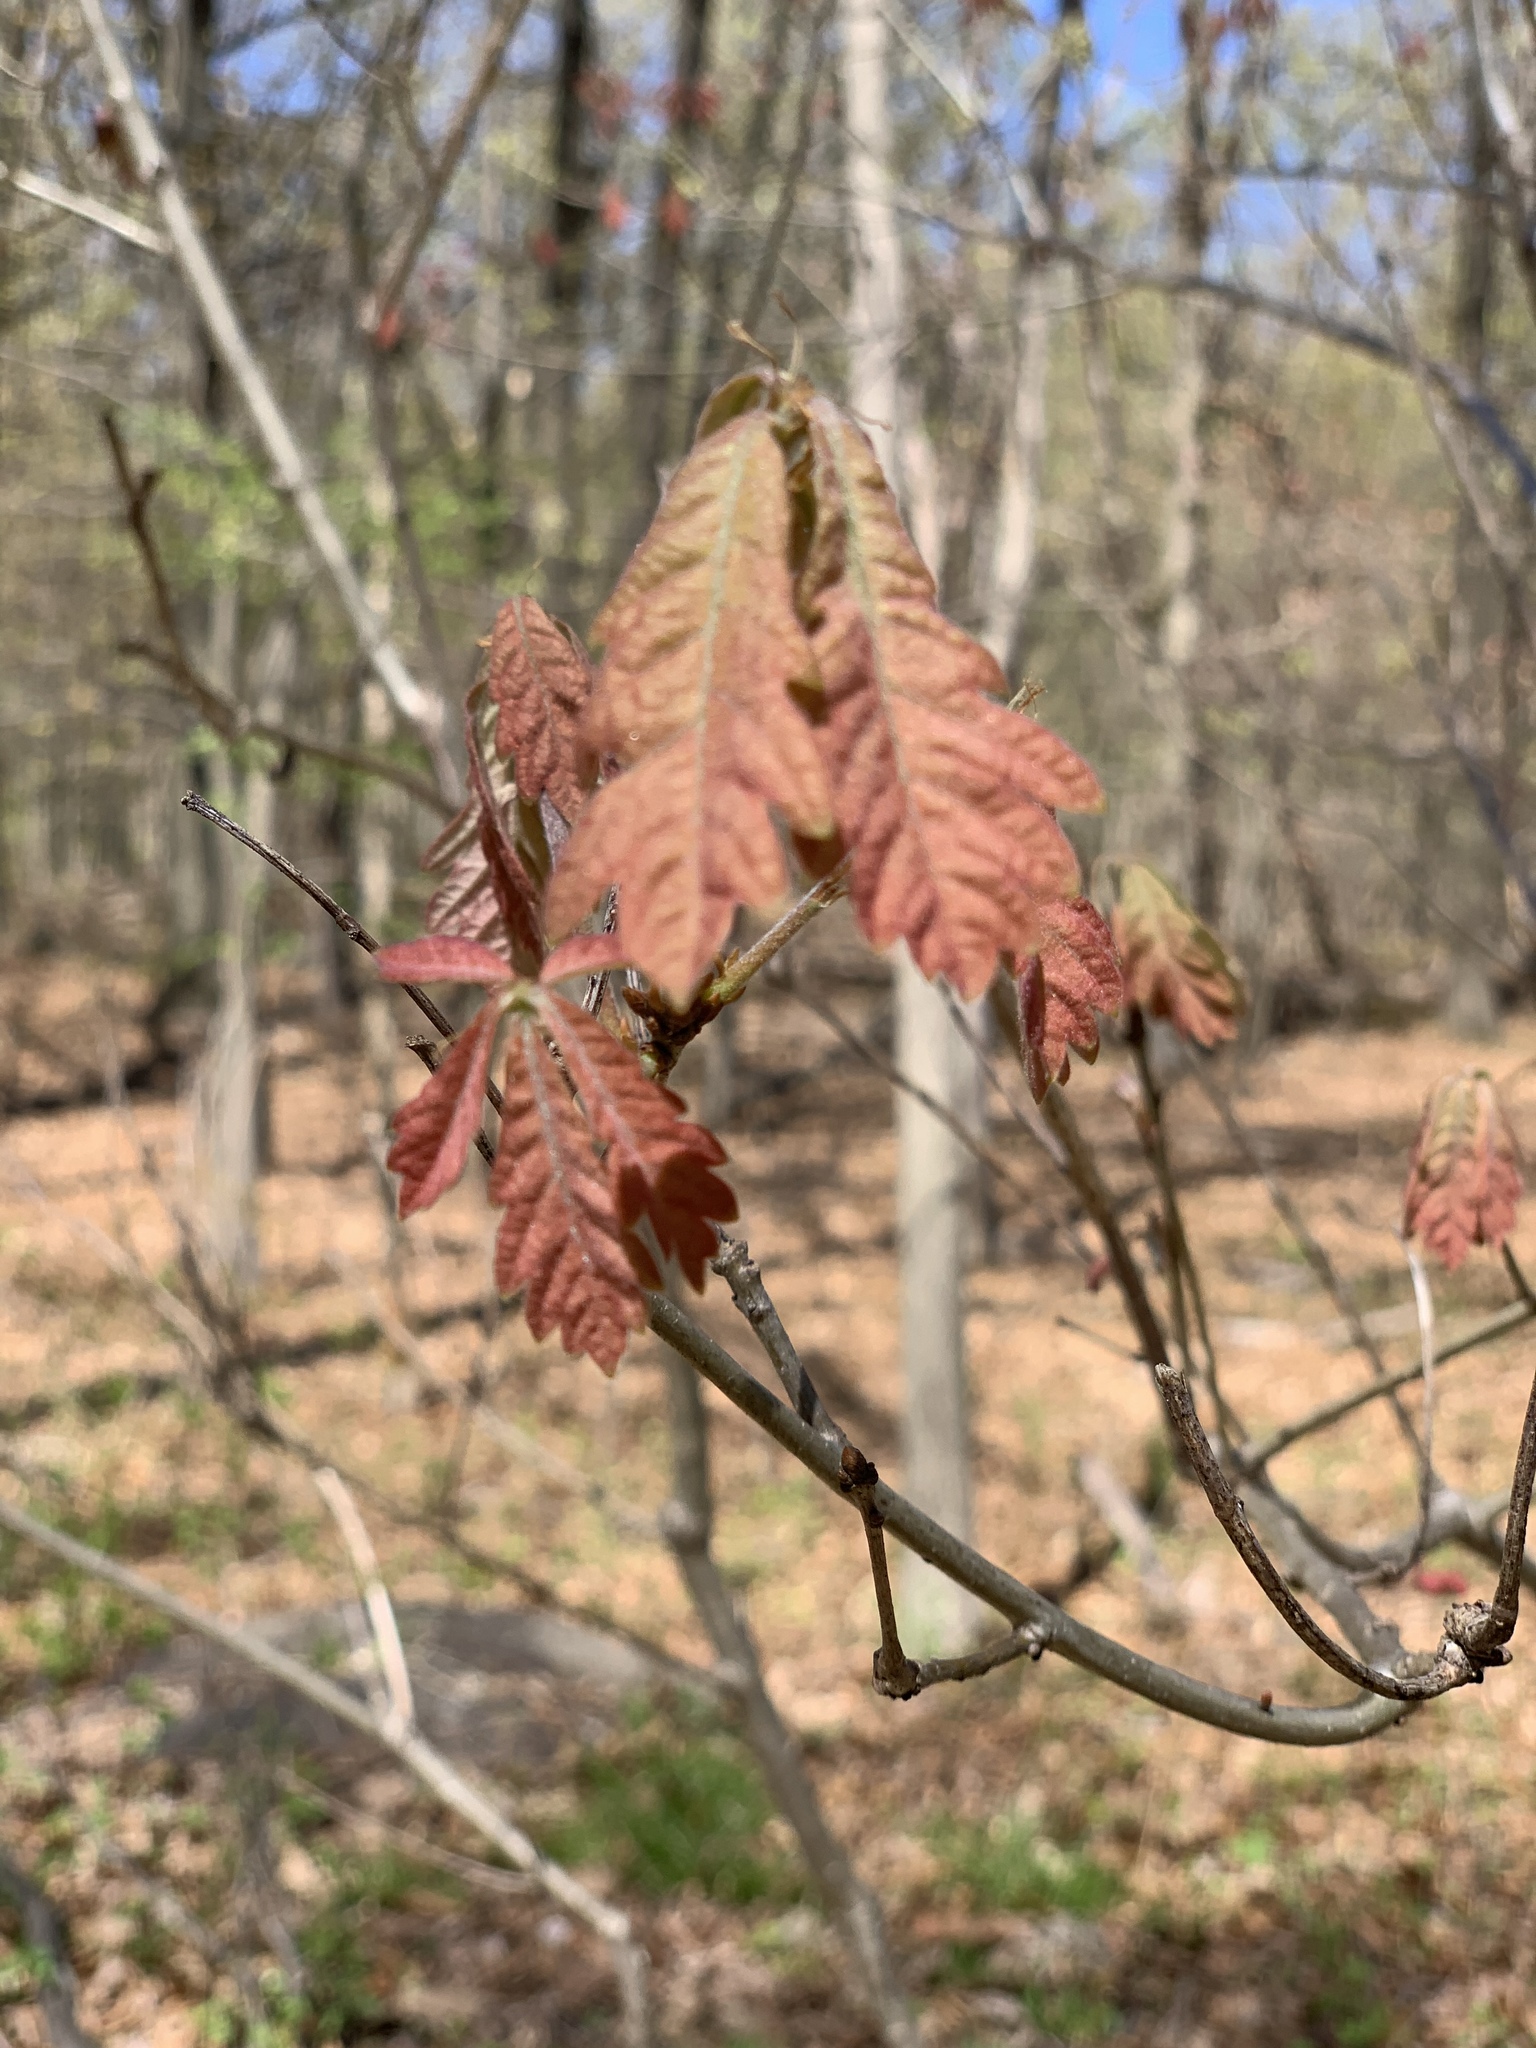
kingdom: Plantae
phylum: Tracheophyta
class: Magnoliopsida
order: Fagales
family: Fagaceae
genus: Quercus
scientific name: Quercus alba
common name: White oak
